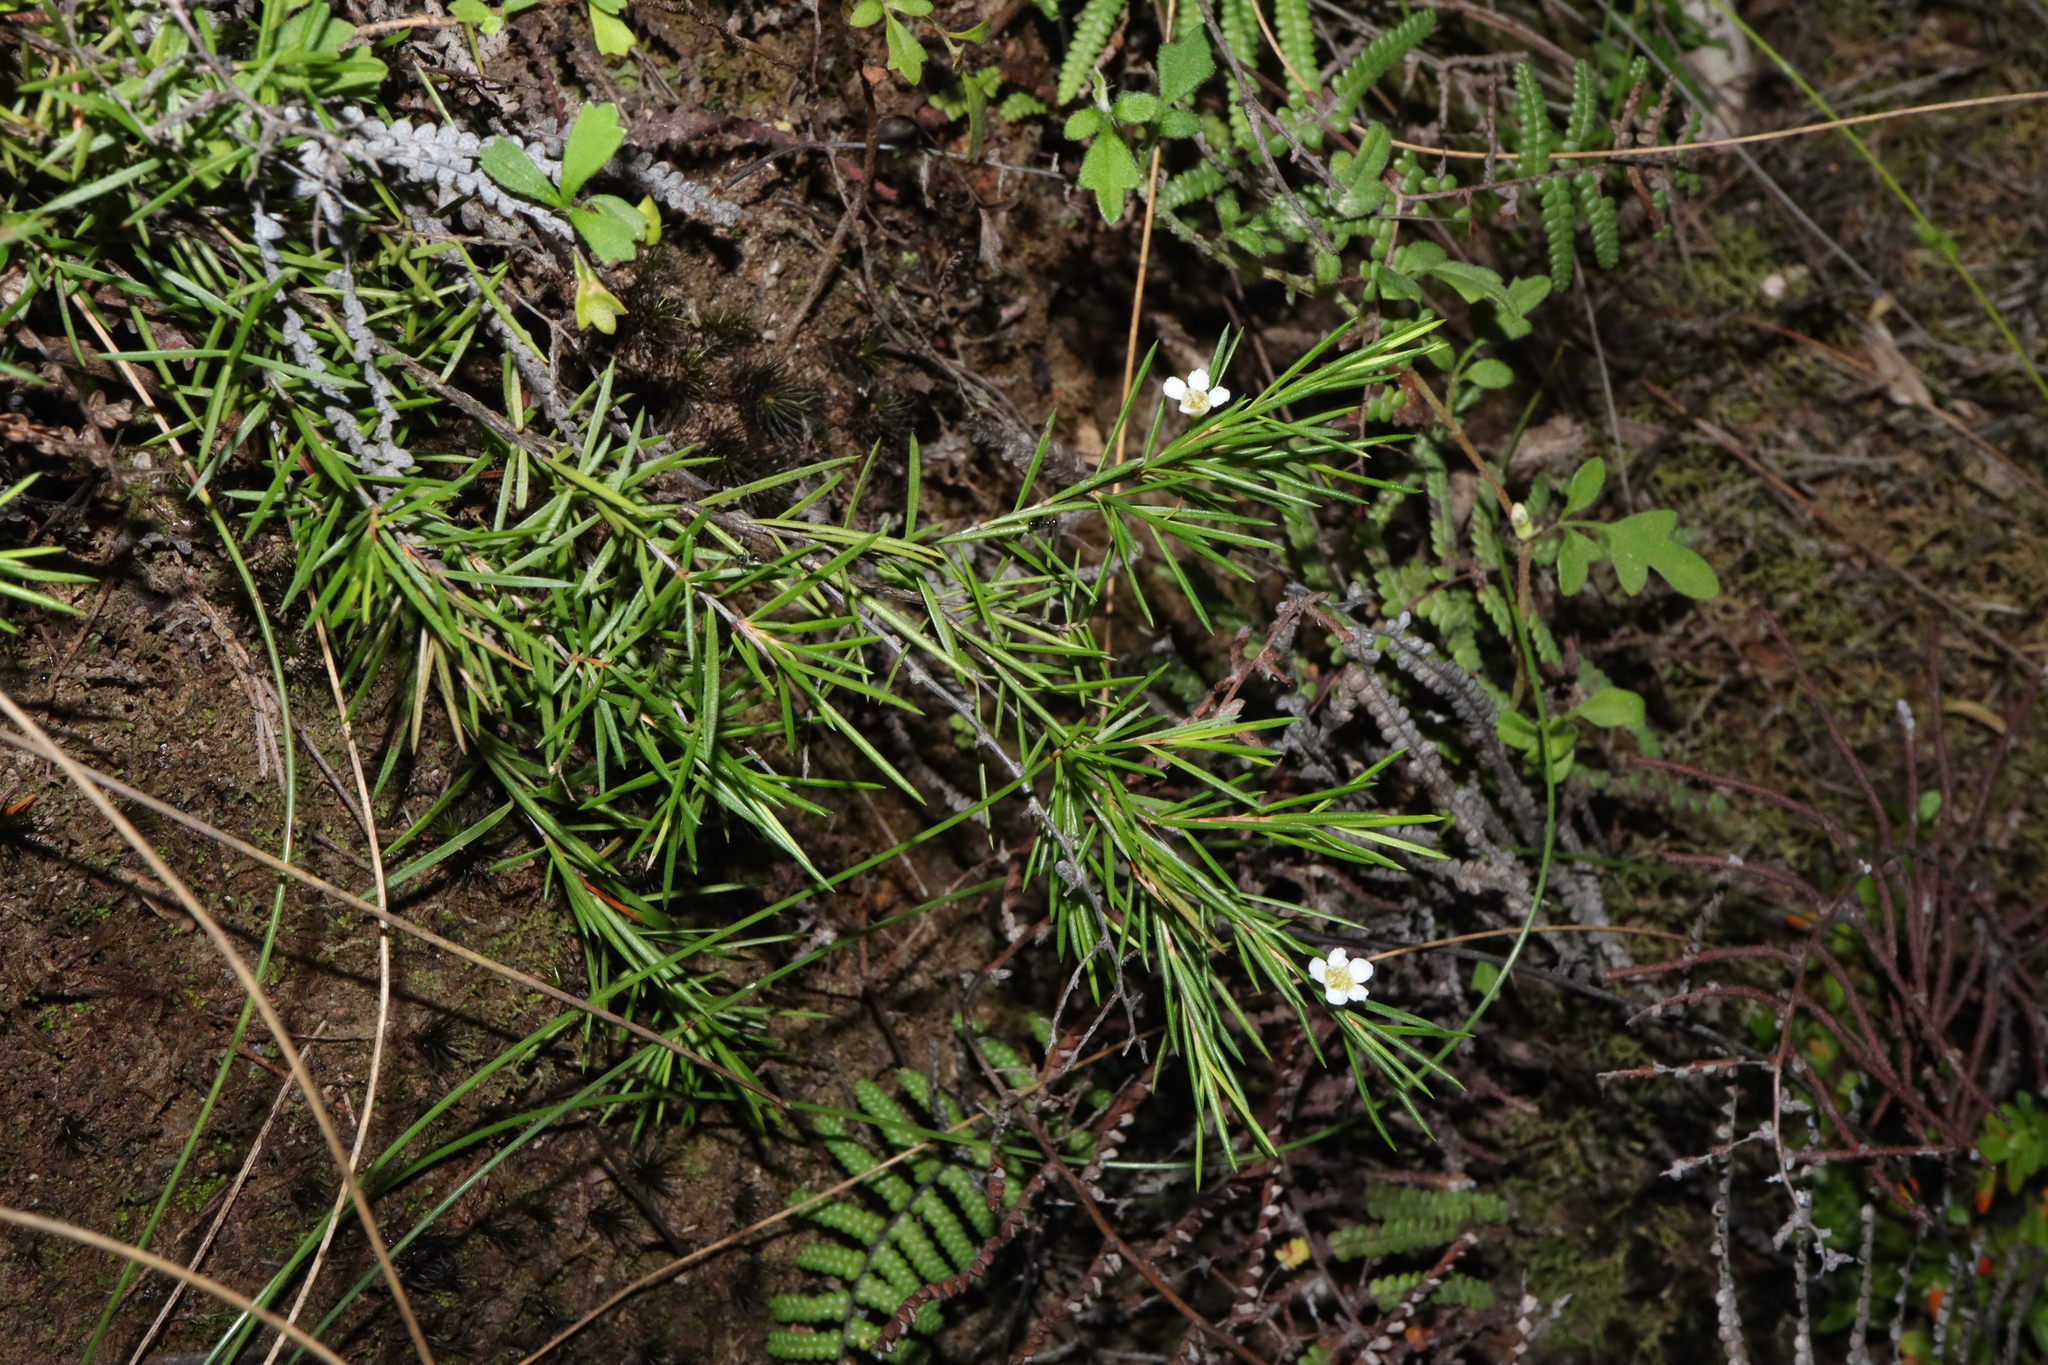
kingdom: Plantae
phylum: Tracheophyta
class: Magnoliopsida
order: Myrtales
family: Myrtaceae
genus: Baeckea
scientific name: Baeckea linifolia
